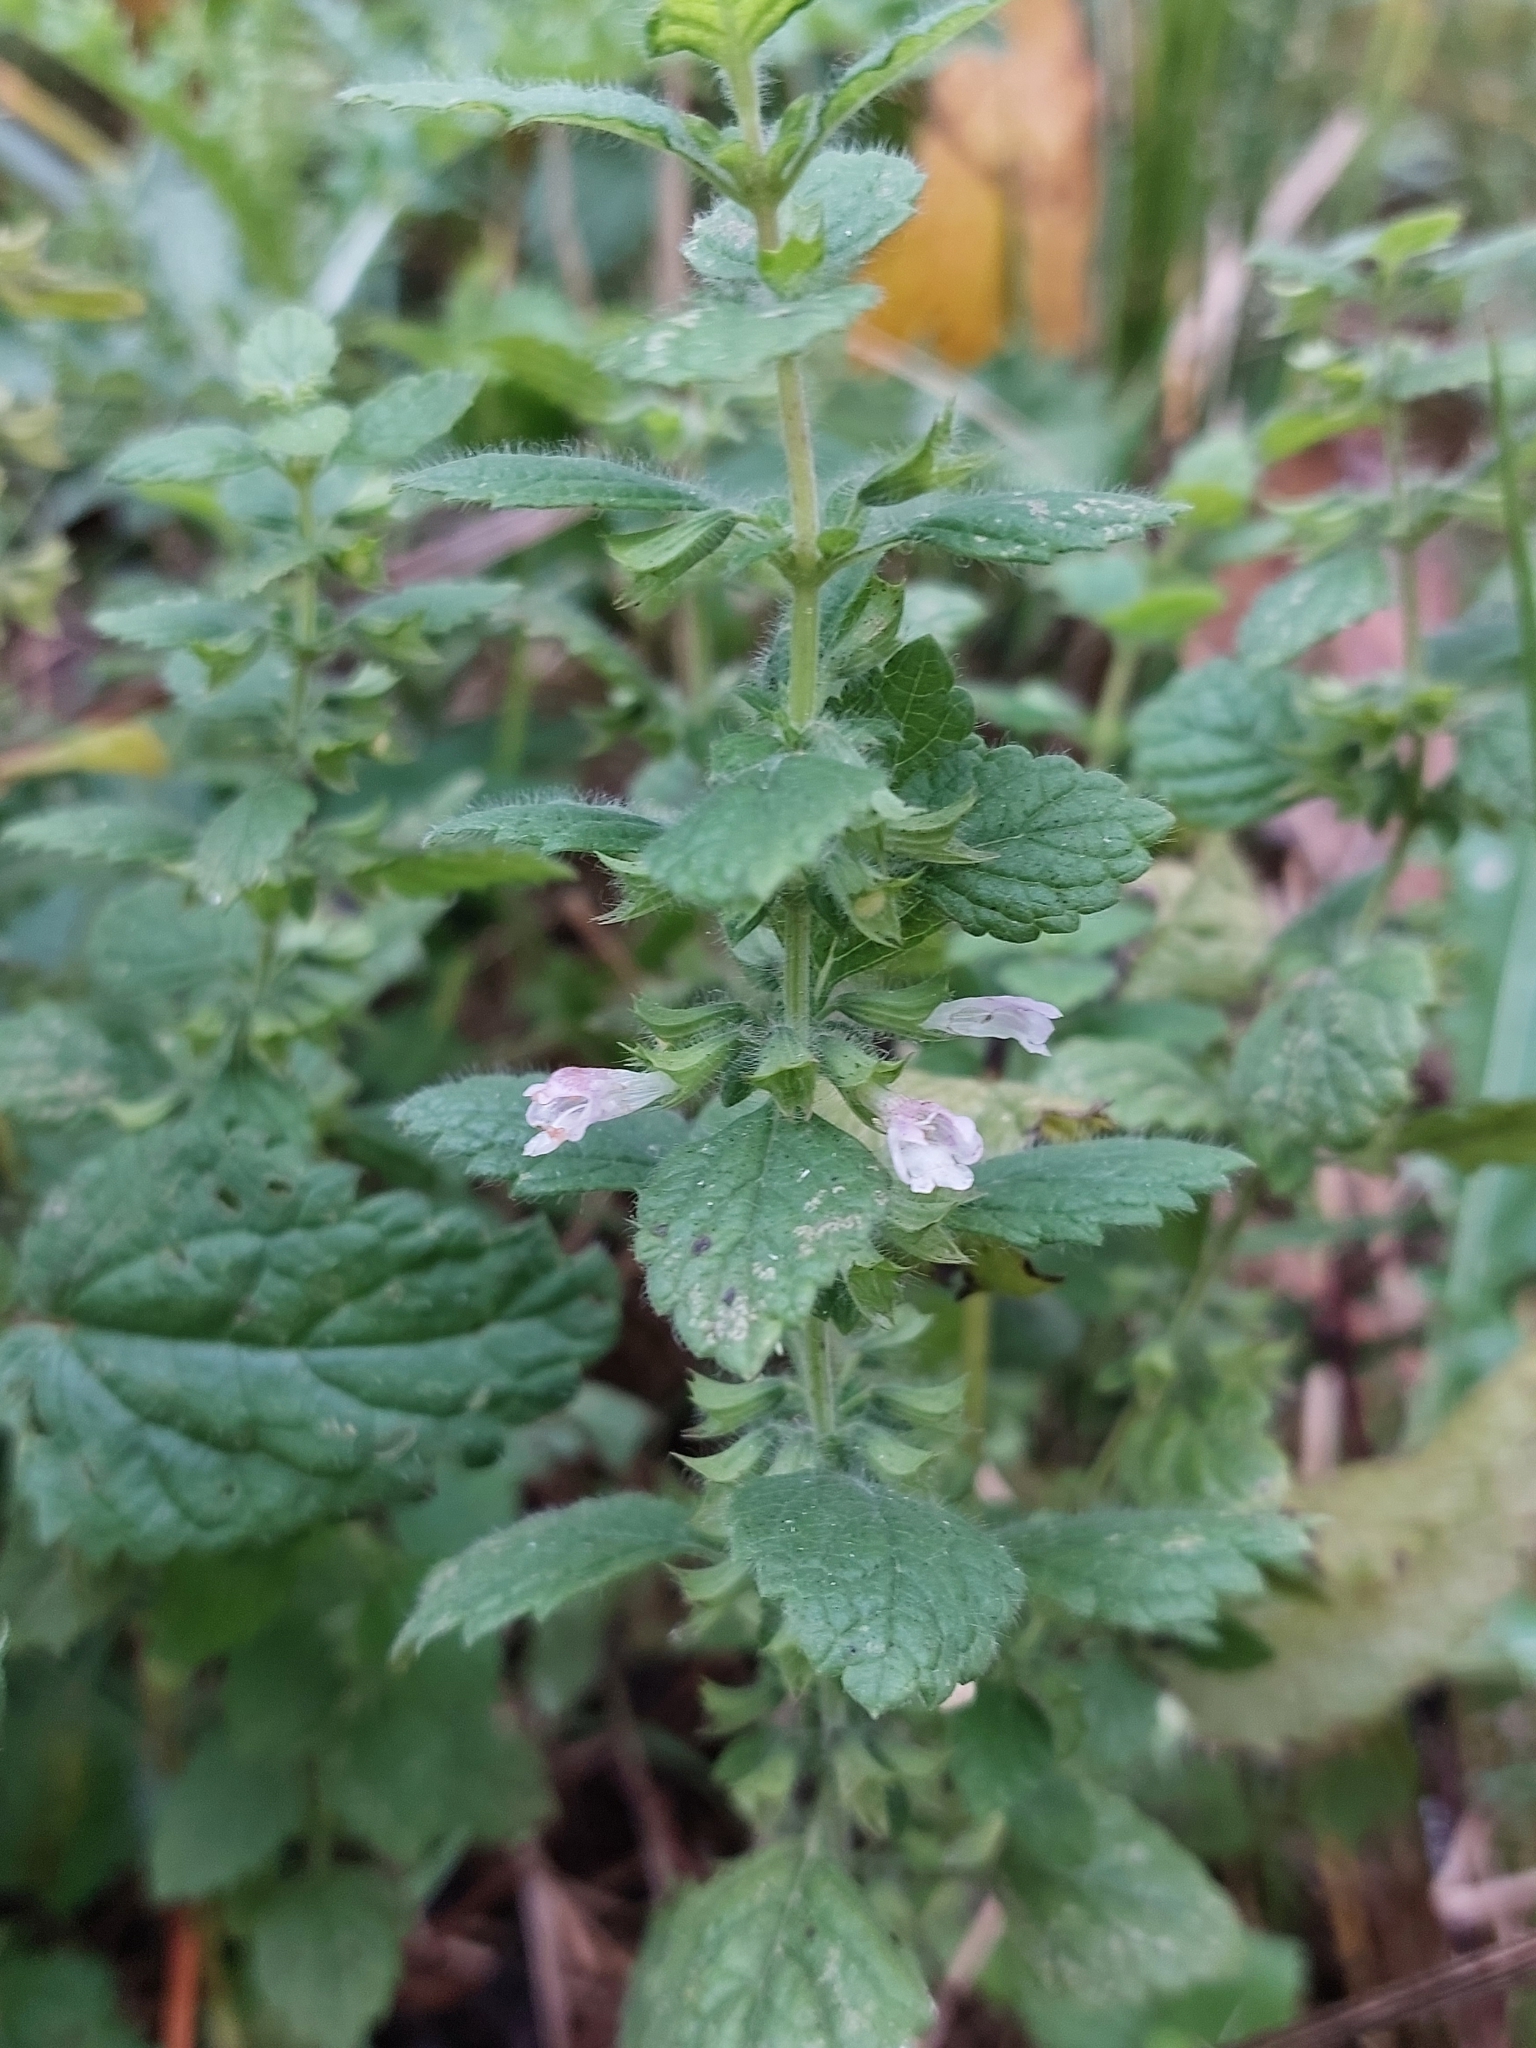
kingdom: Plantae
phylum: Tracheophyta
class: Magnoliopsida
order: Lamiales
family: Lamiaceae
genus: Melissa
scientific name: Melissa officinalis
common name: Balm
